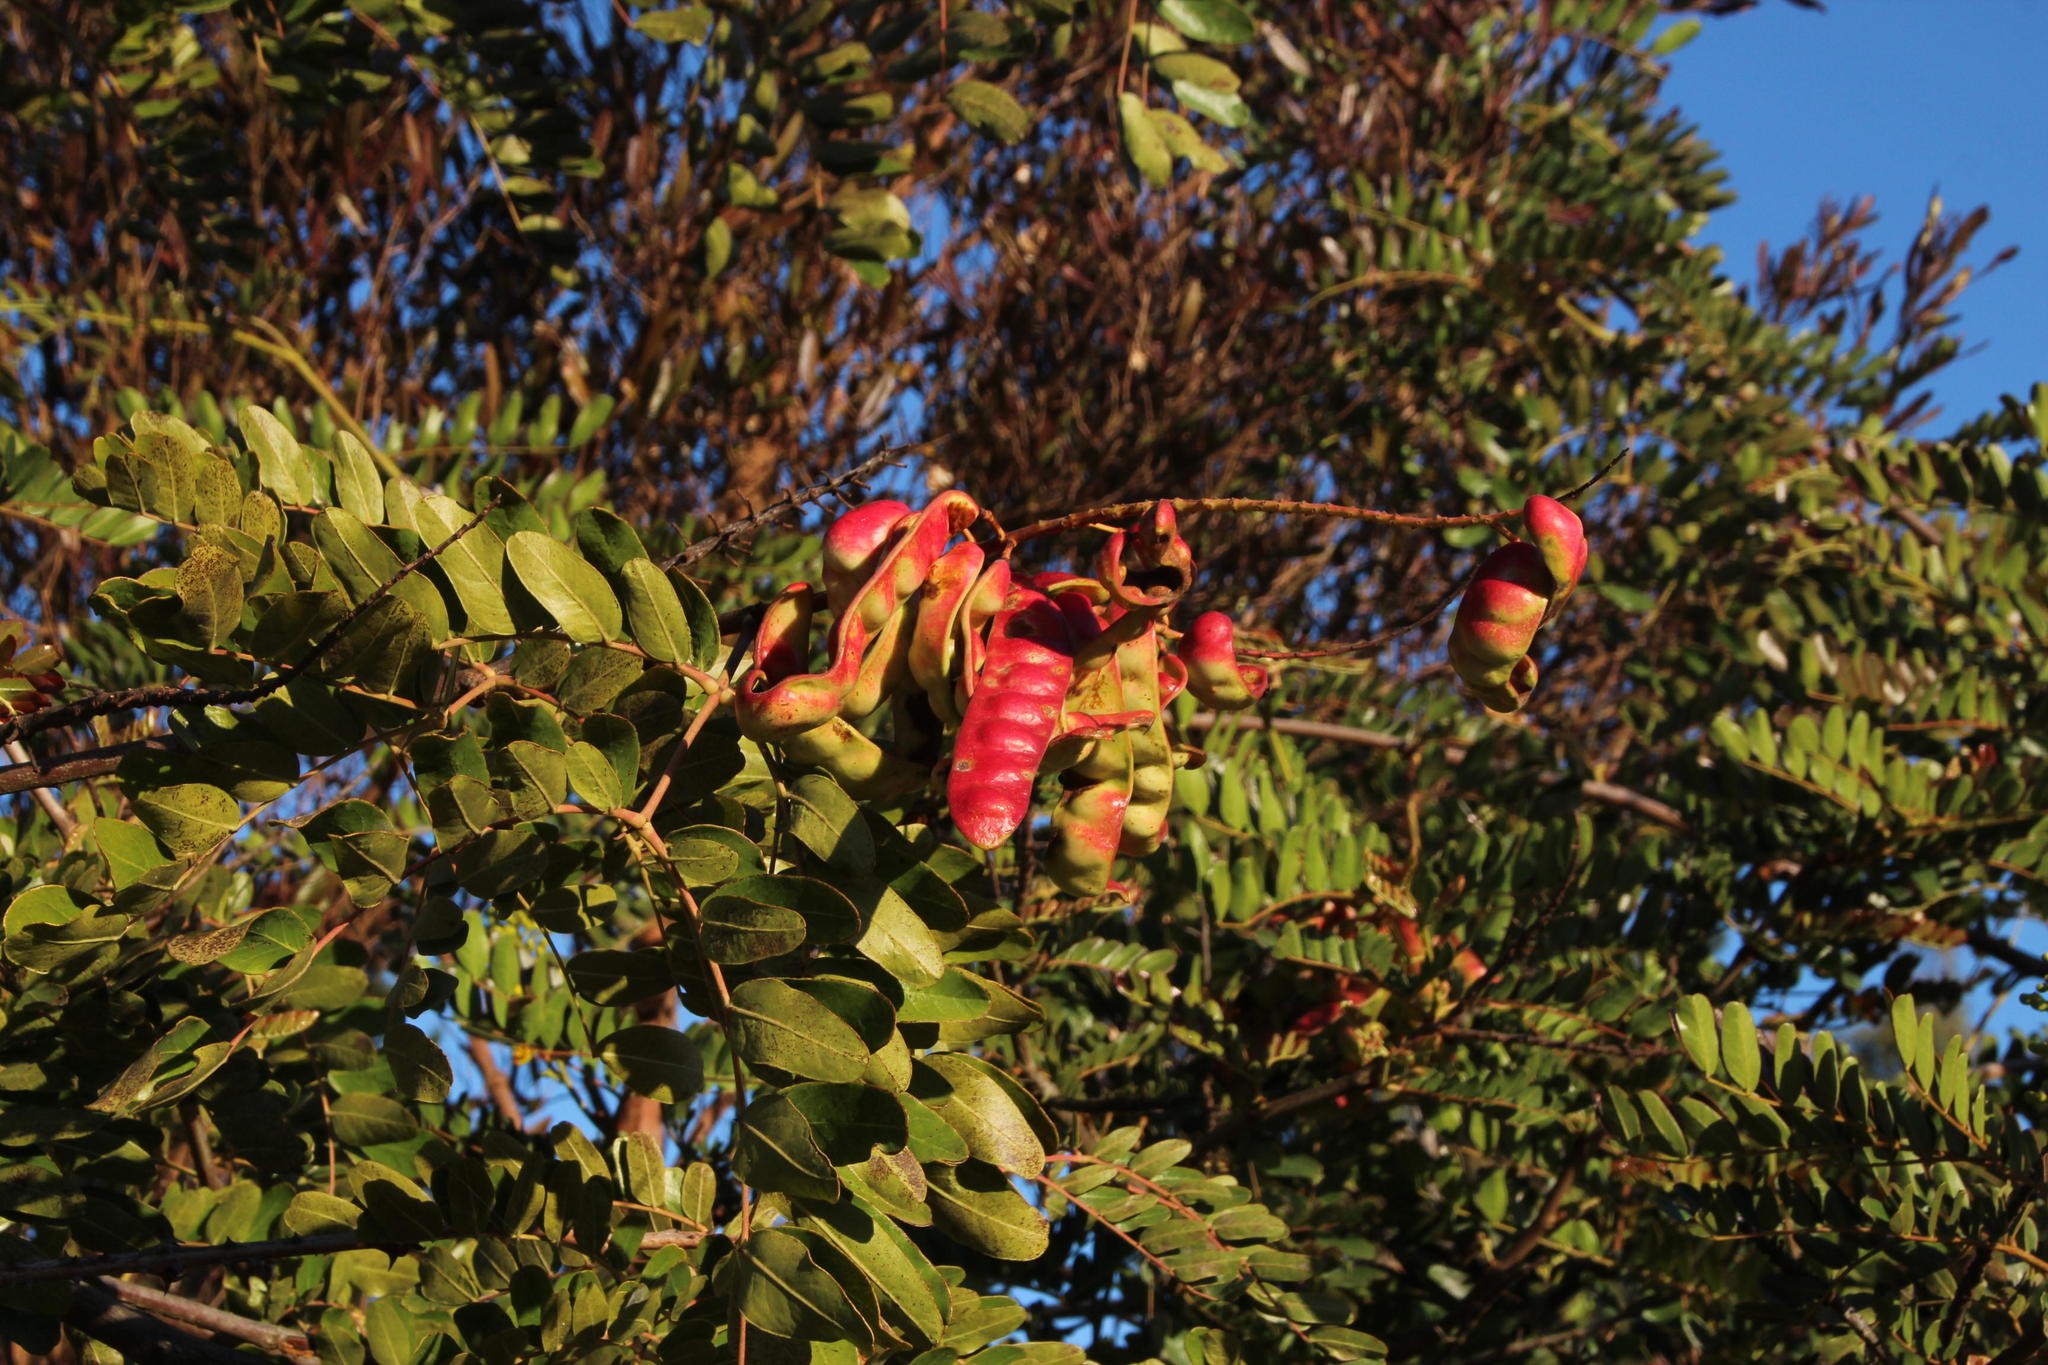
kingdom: Plantae
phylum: Tracheophyta
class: Magnoliopsida
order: Fabales
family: Fabaceae
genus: Tara
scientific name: Tara spinosa
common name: Spiny holdback
